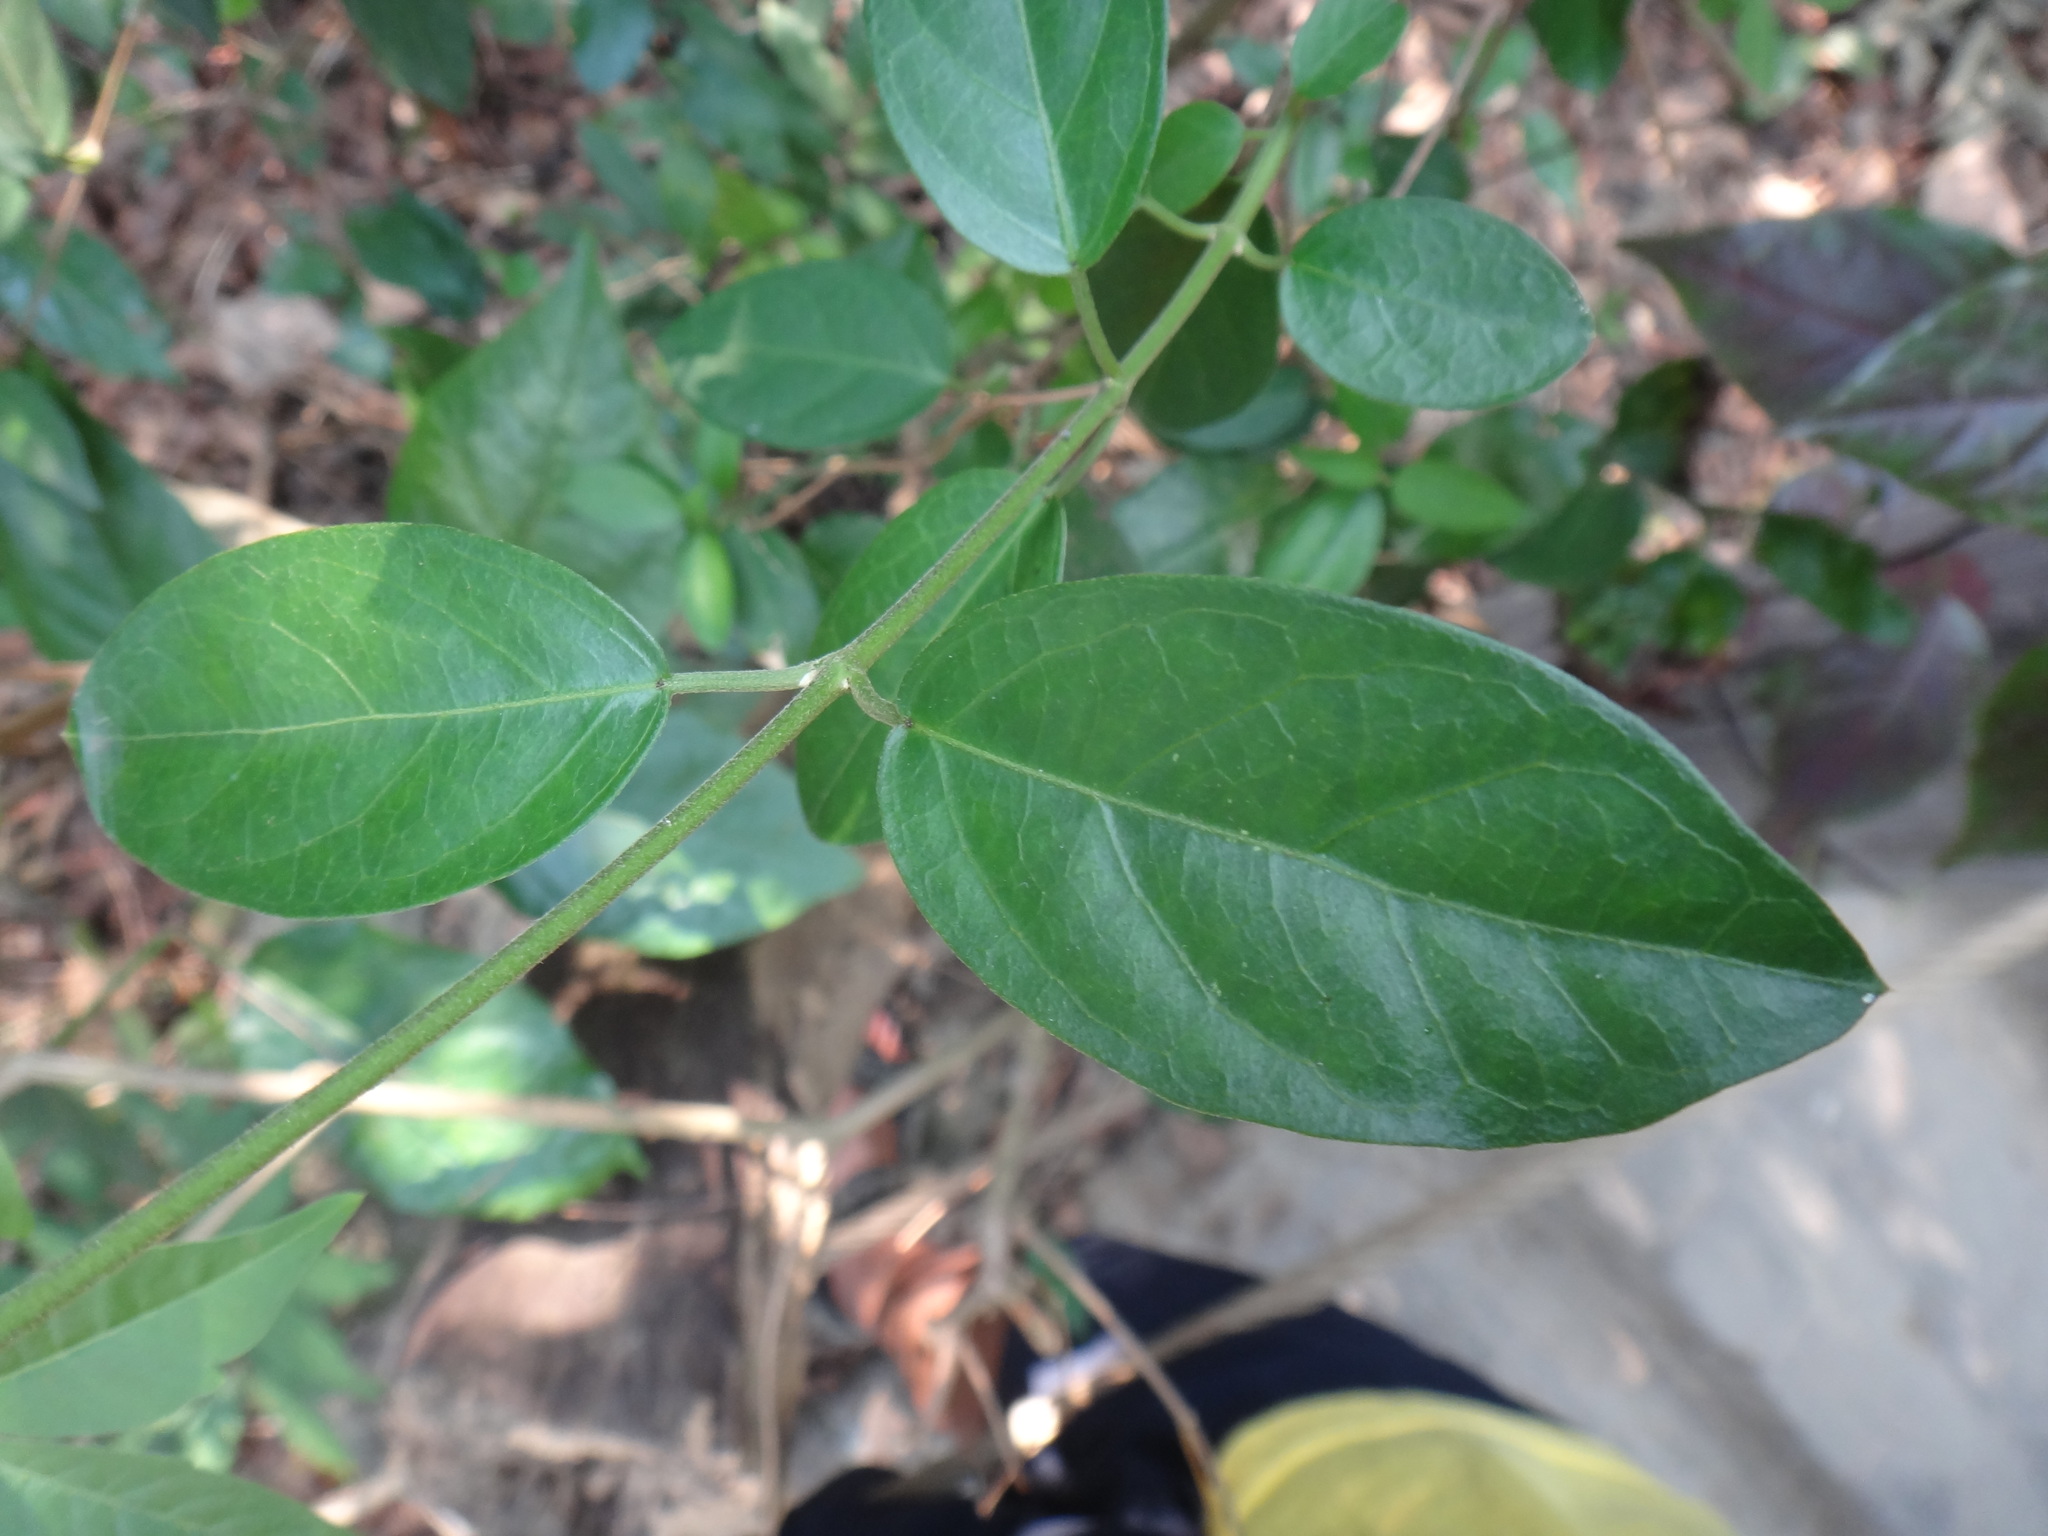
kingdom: Plantae
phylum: Tracheophyta
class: Magnoliopsida
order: Gentianales
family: Apocynaceae
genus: Gymnema
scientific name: Gymnema sylvestre
